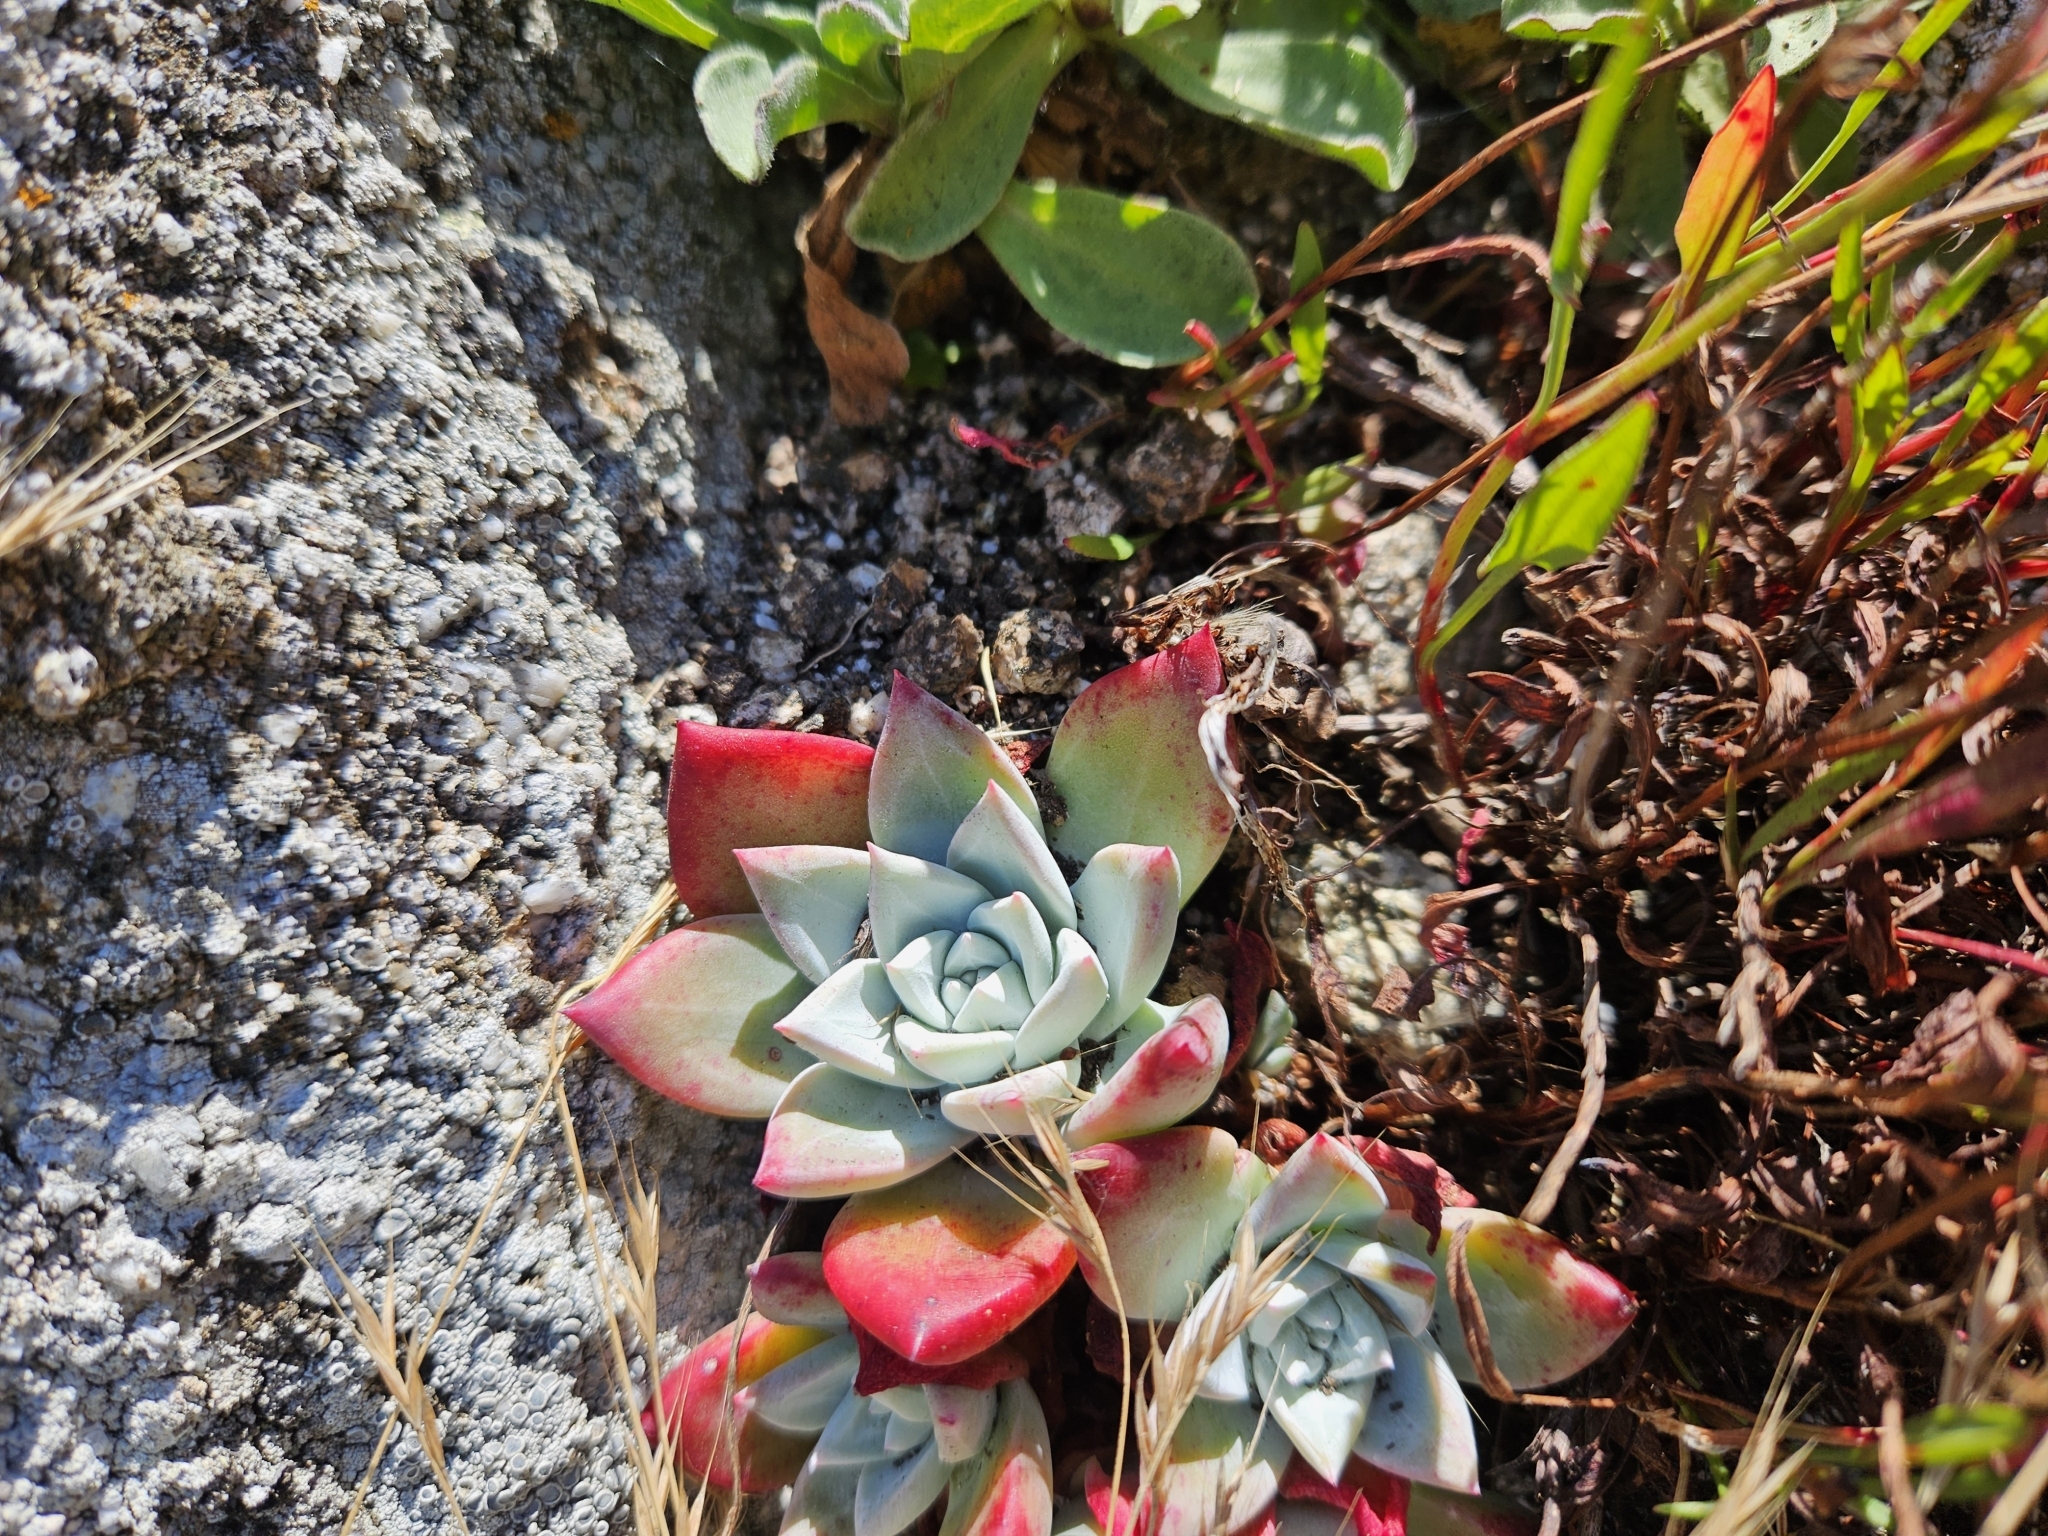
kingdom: Plantae
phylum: Tracheophyta
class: Magnoliopsida
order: Saxifragales
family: Crassulaceae
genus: Dudleya
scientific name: Dudleya farinosa
